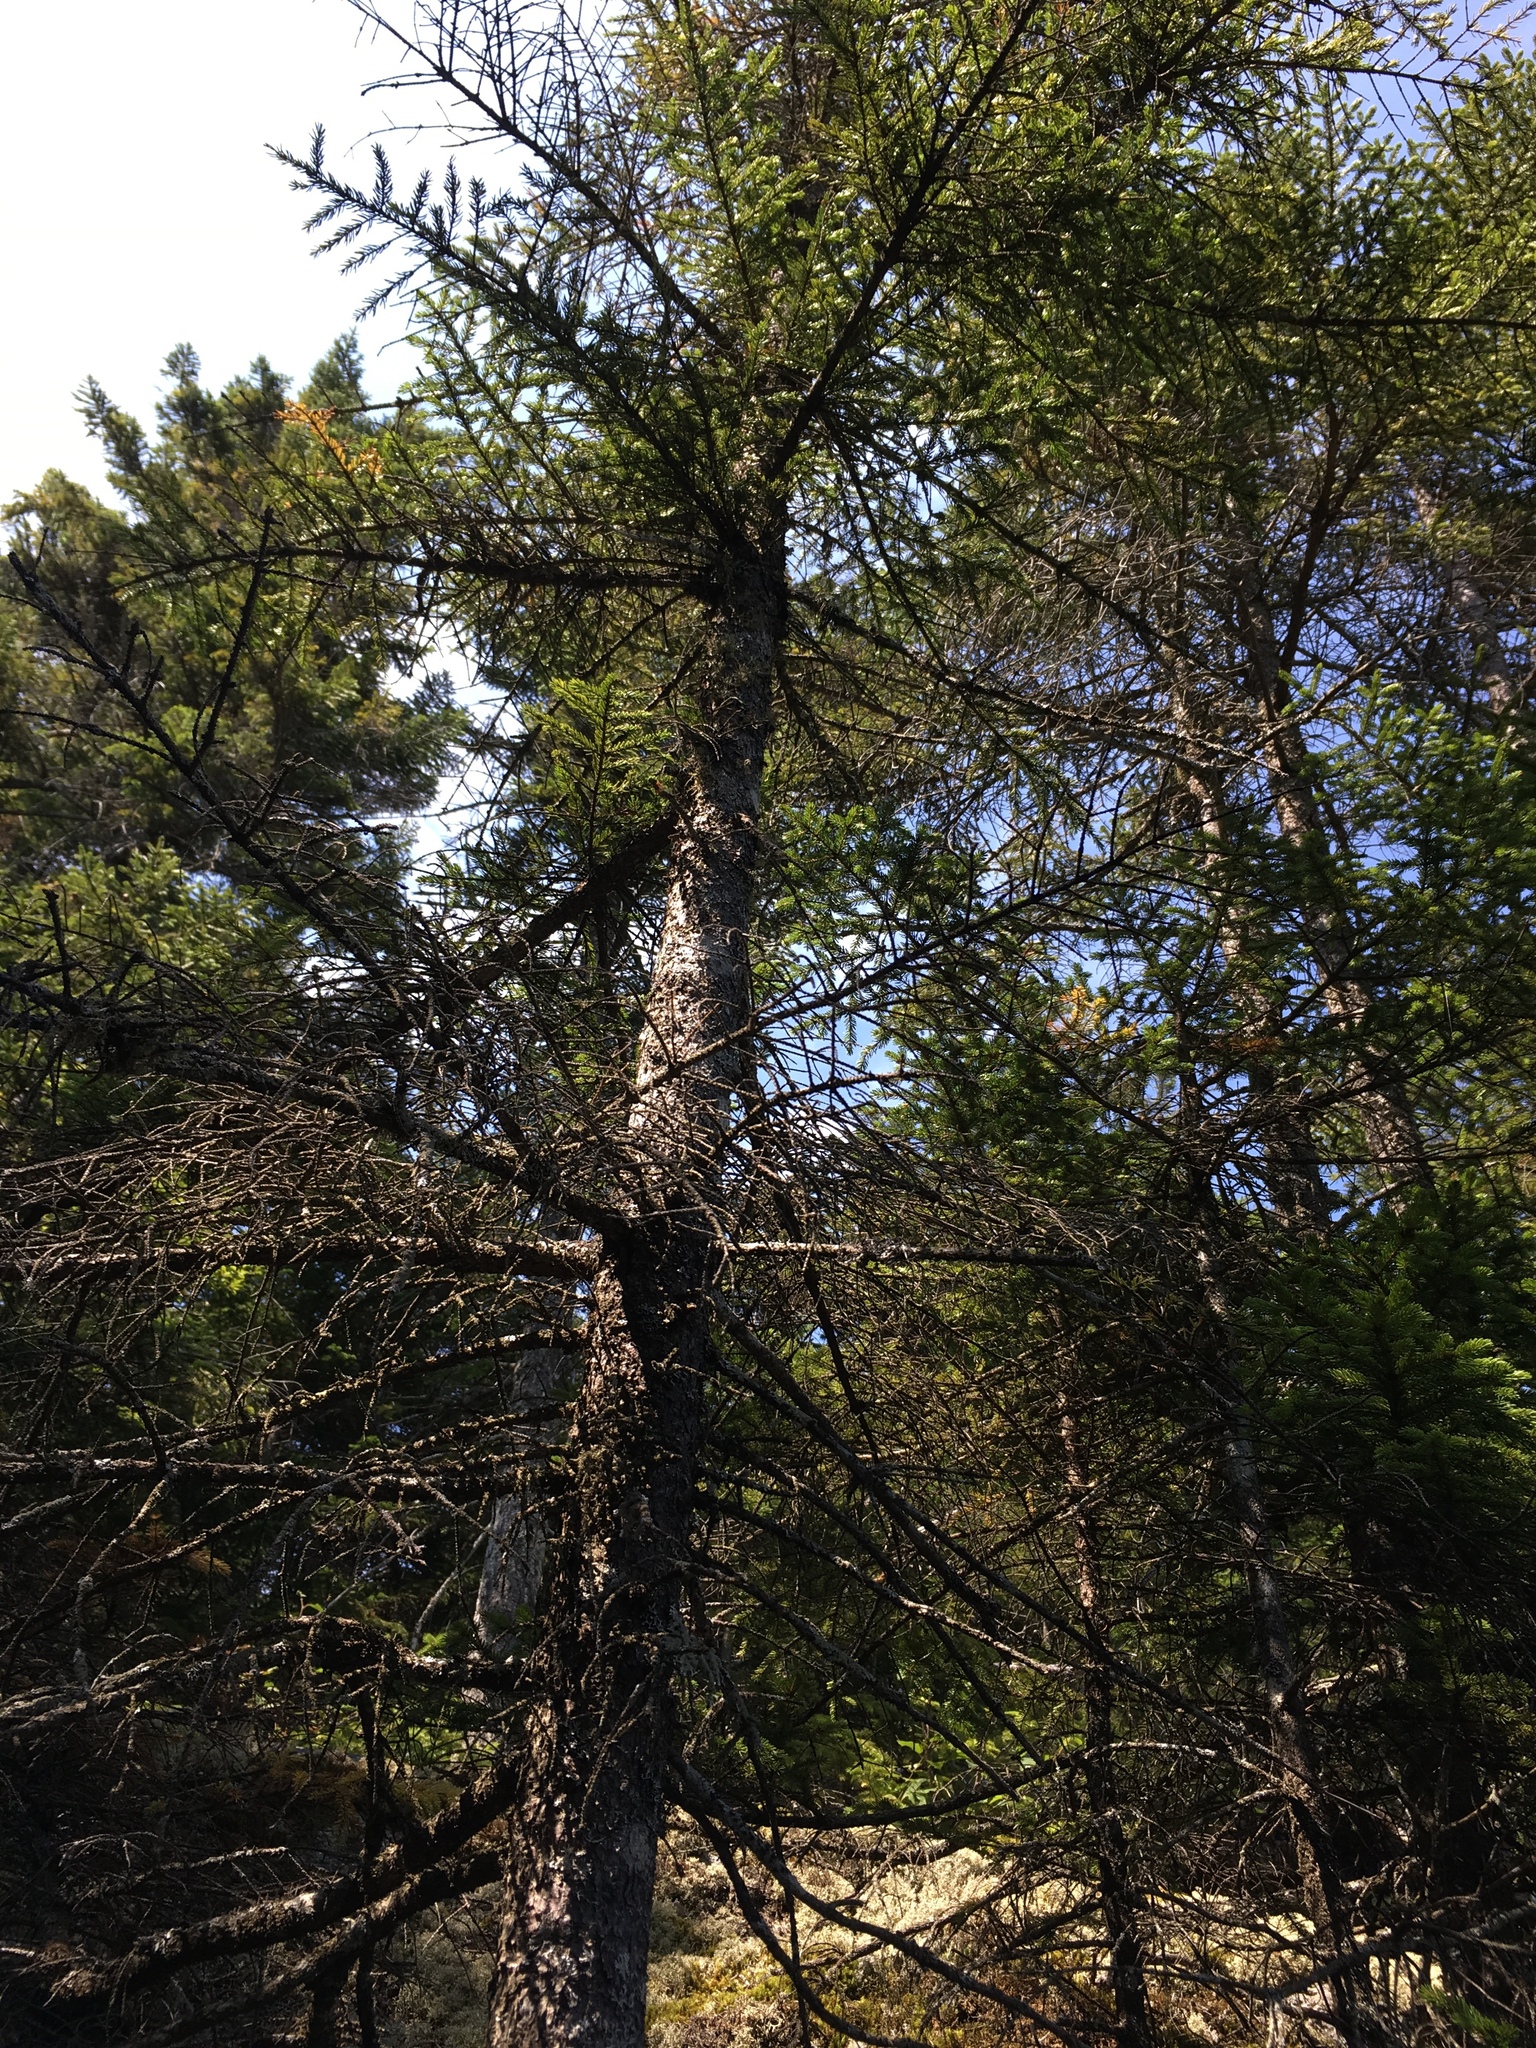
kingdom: Plantae
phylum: Tracheophyta
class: Pinopsida
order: Pinales
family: Pinaceae
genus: Picea
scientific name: Picea rubens
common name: Red spruce
